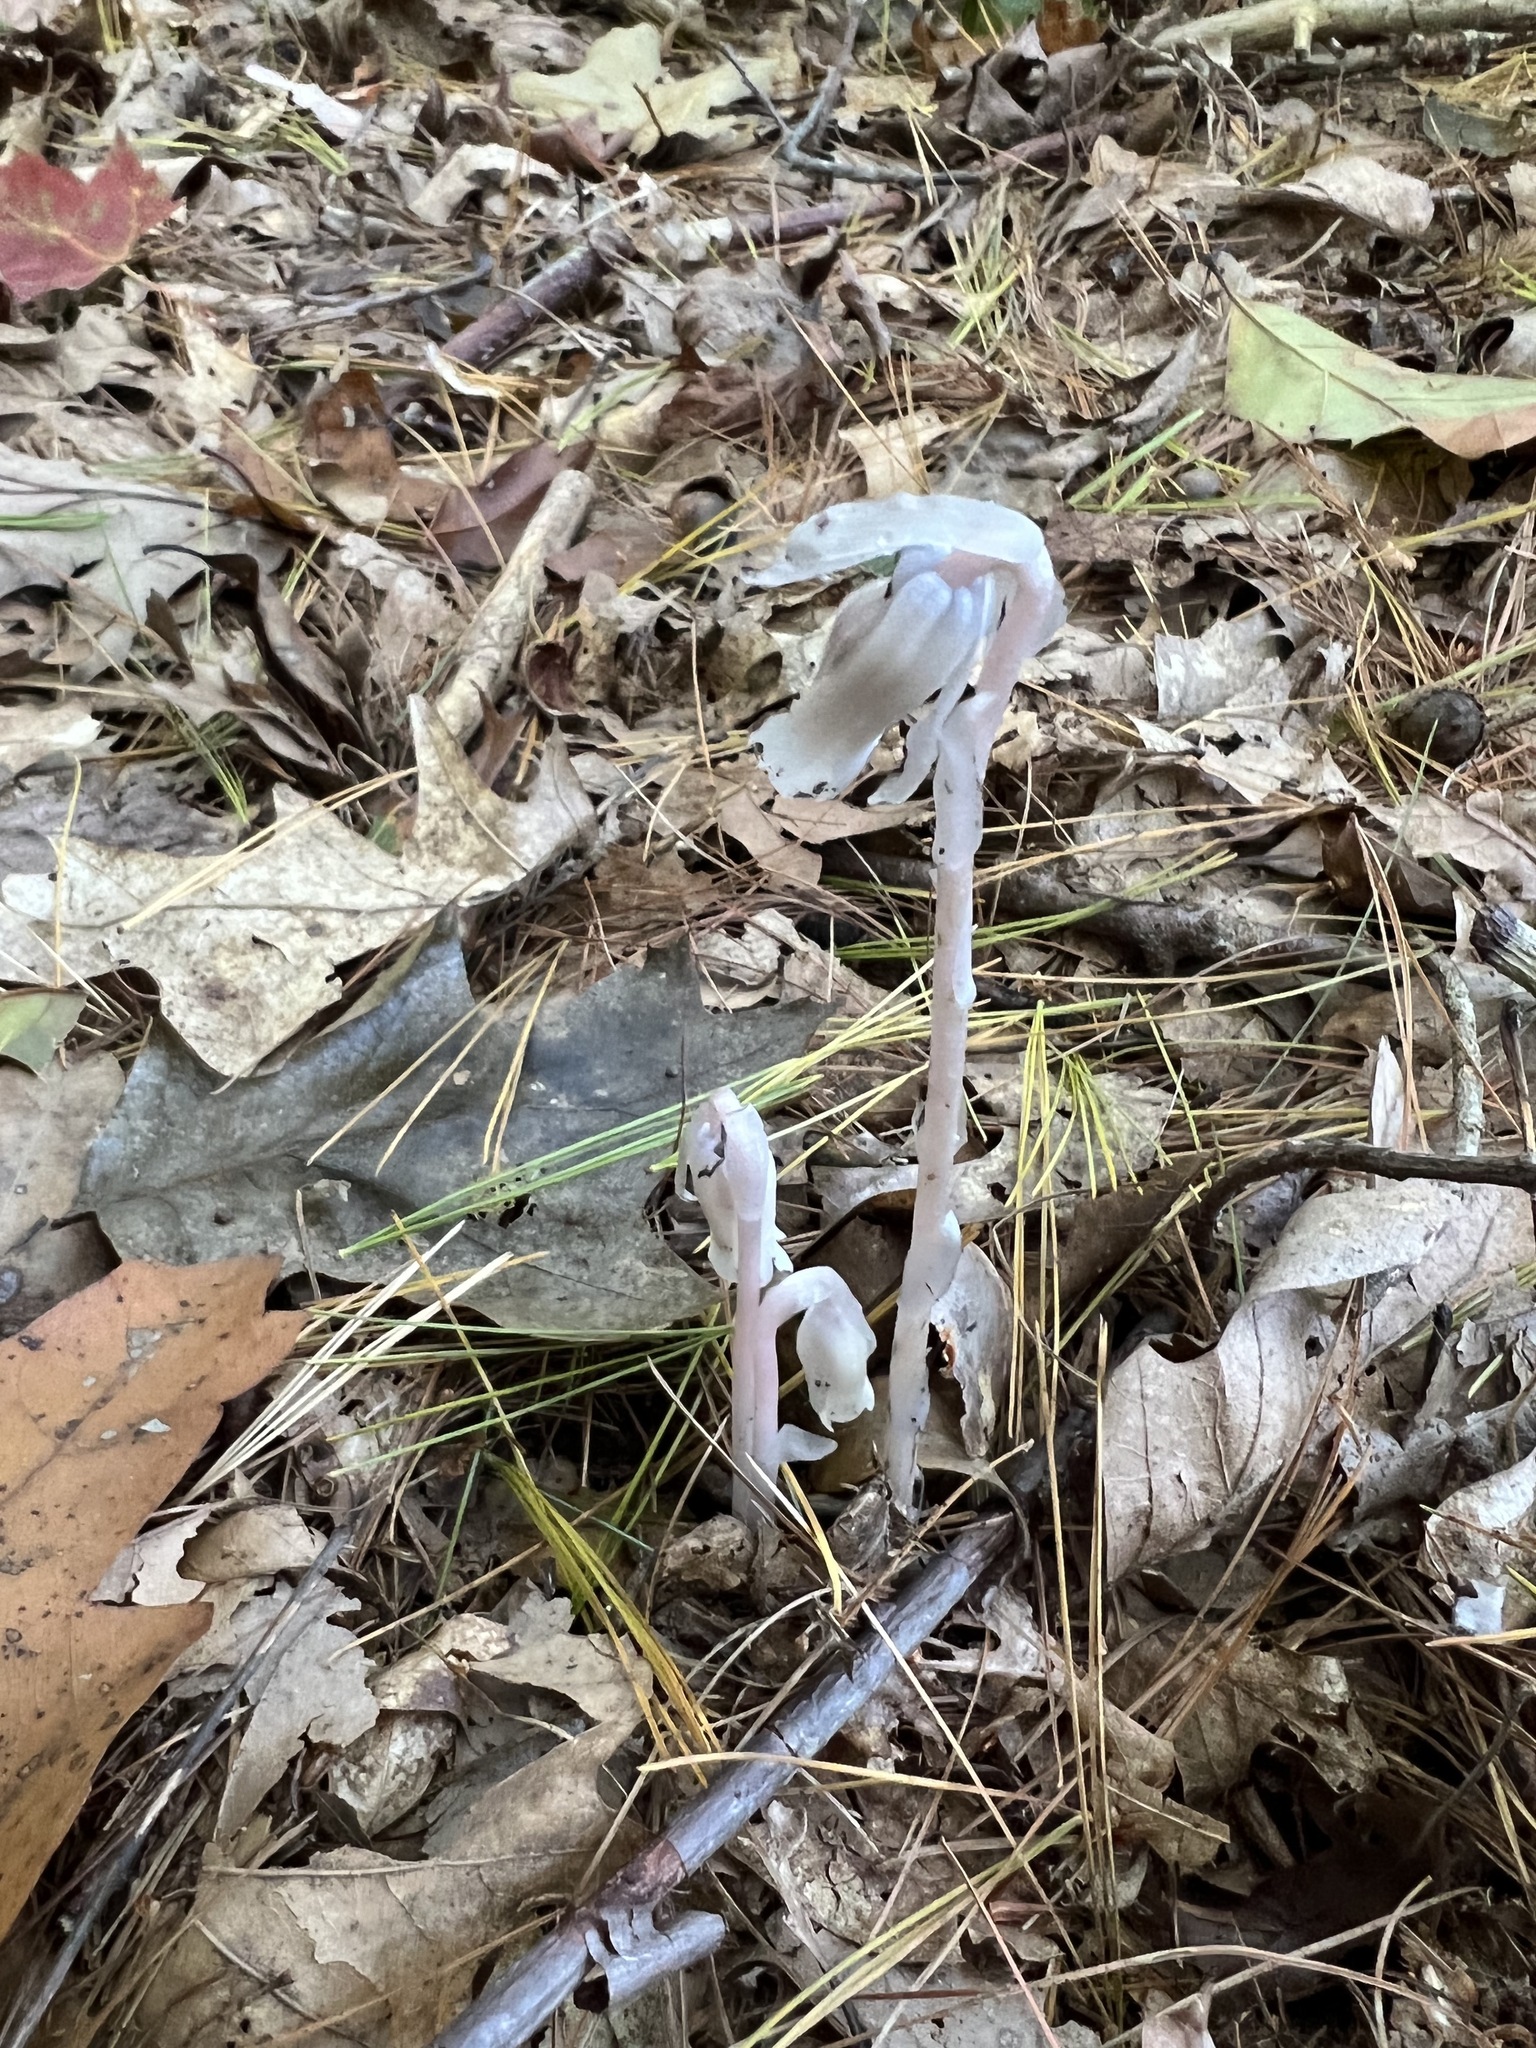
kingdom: Plantae
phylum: Tracheophyta
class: Magnoliopsida
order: Ericales
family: Ericaceae
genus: Monotropa
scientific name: Monotropa uniflora
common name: Convulsion root
